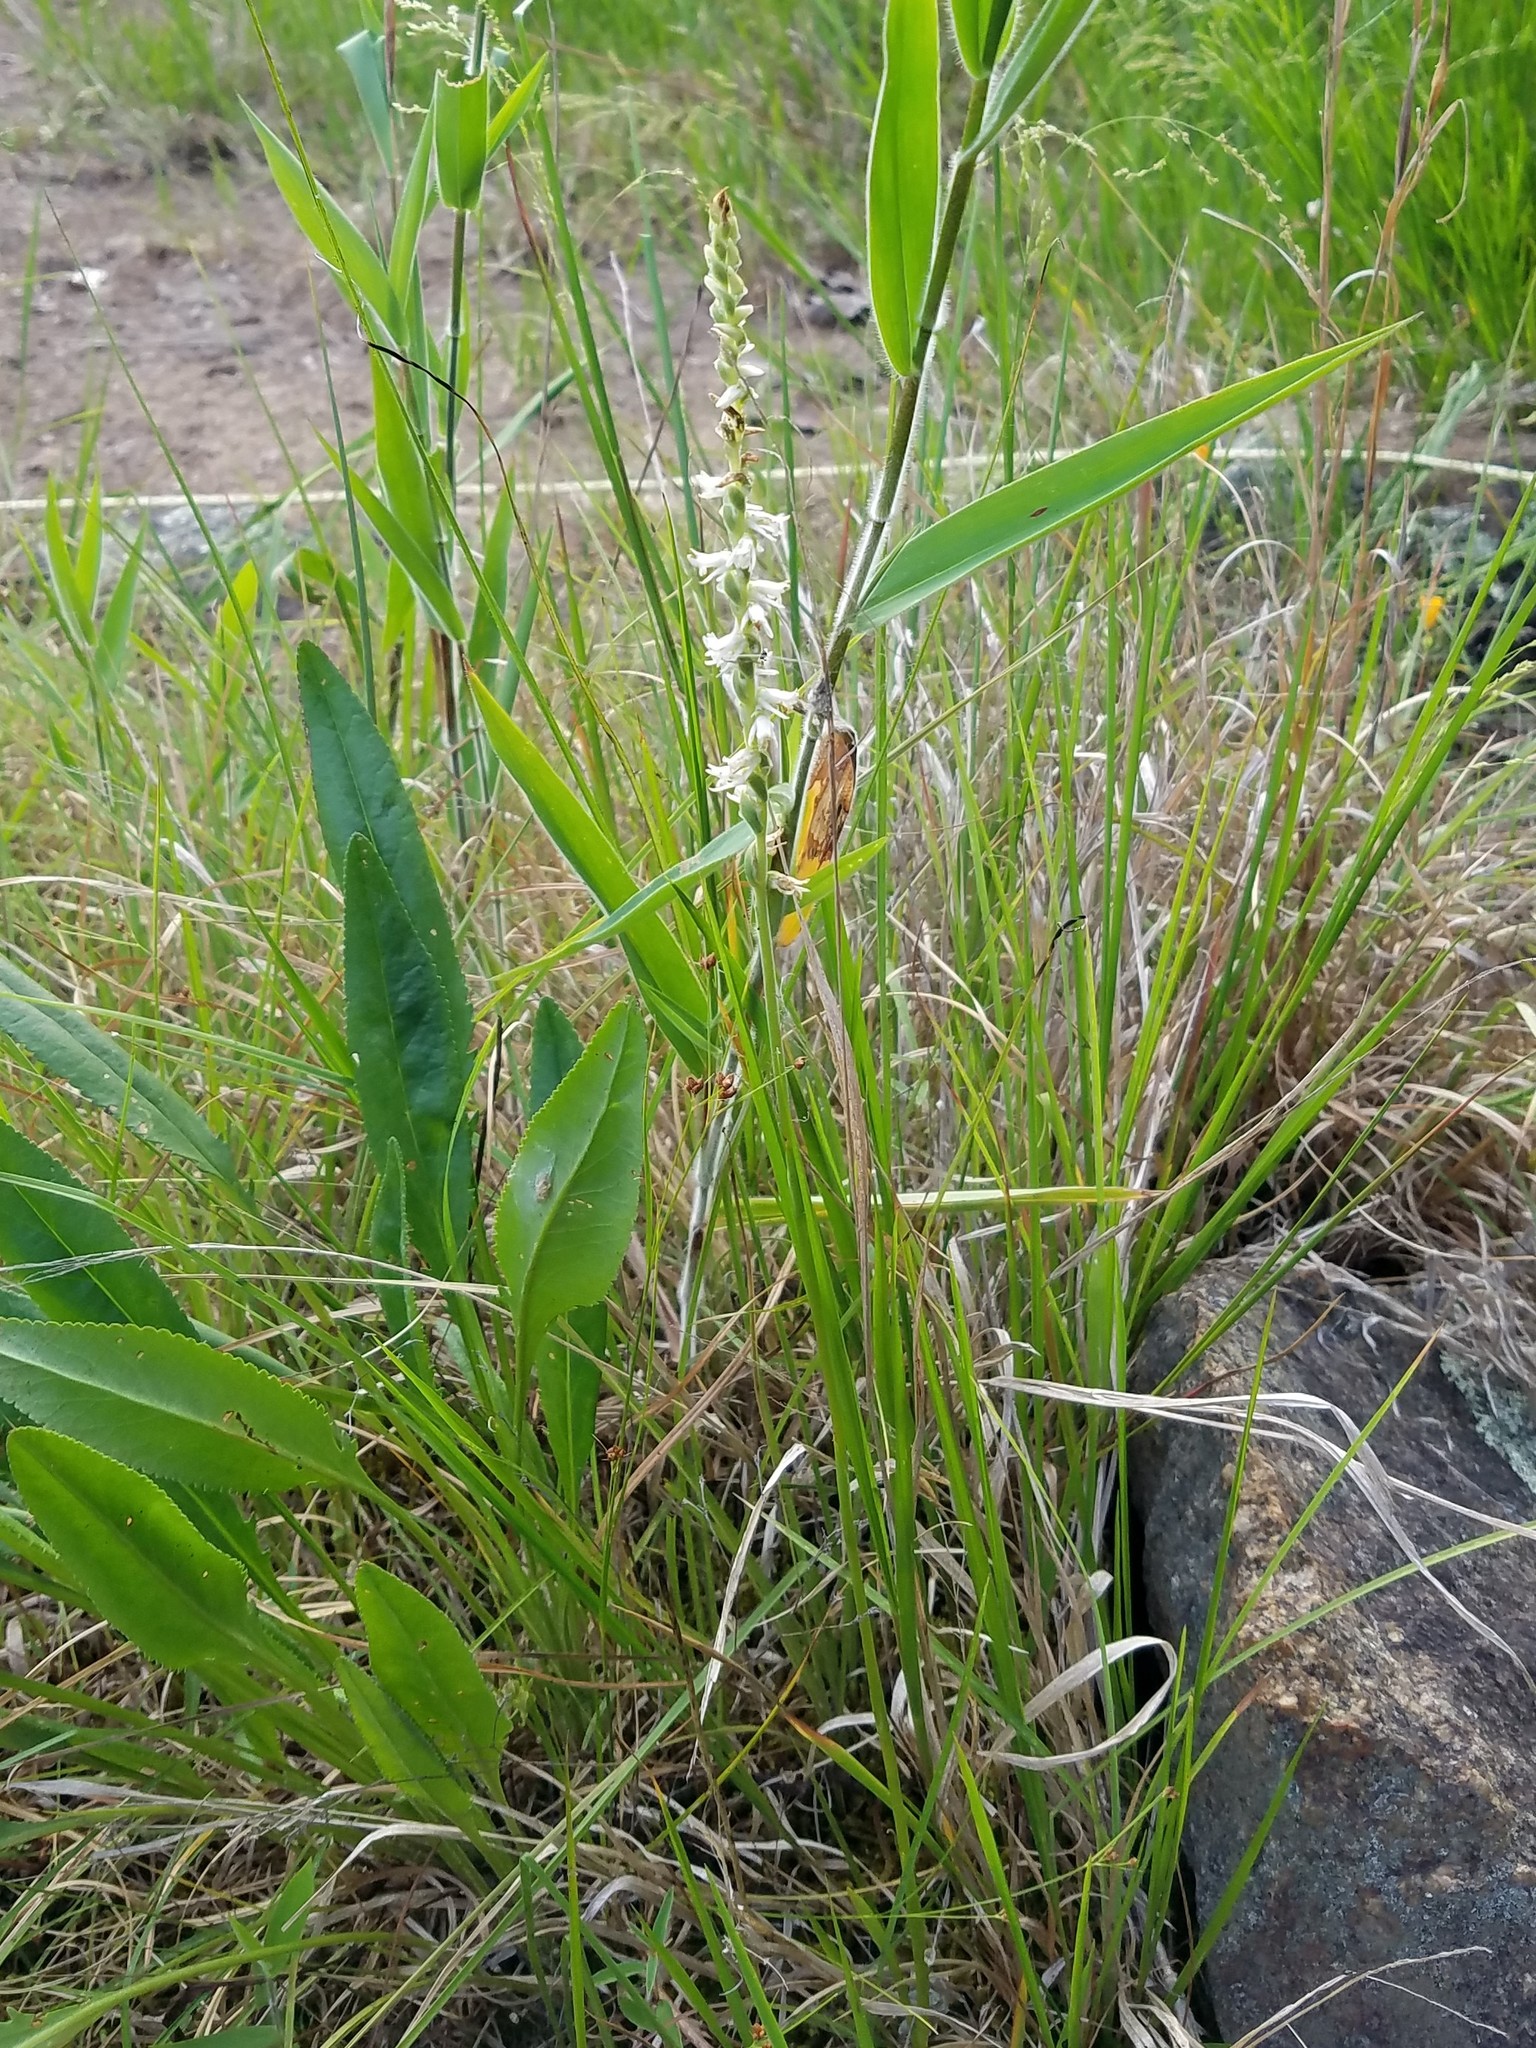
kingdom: Plantae
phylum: Tracheophyta
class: Liliopsida
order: Asparagales
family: Orchidaceae
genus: Spiranthes
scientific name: Spiranthes vernalis
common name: Spring ladies'-tresses
